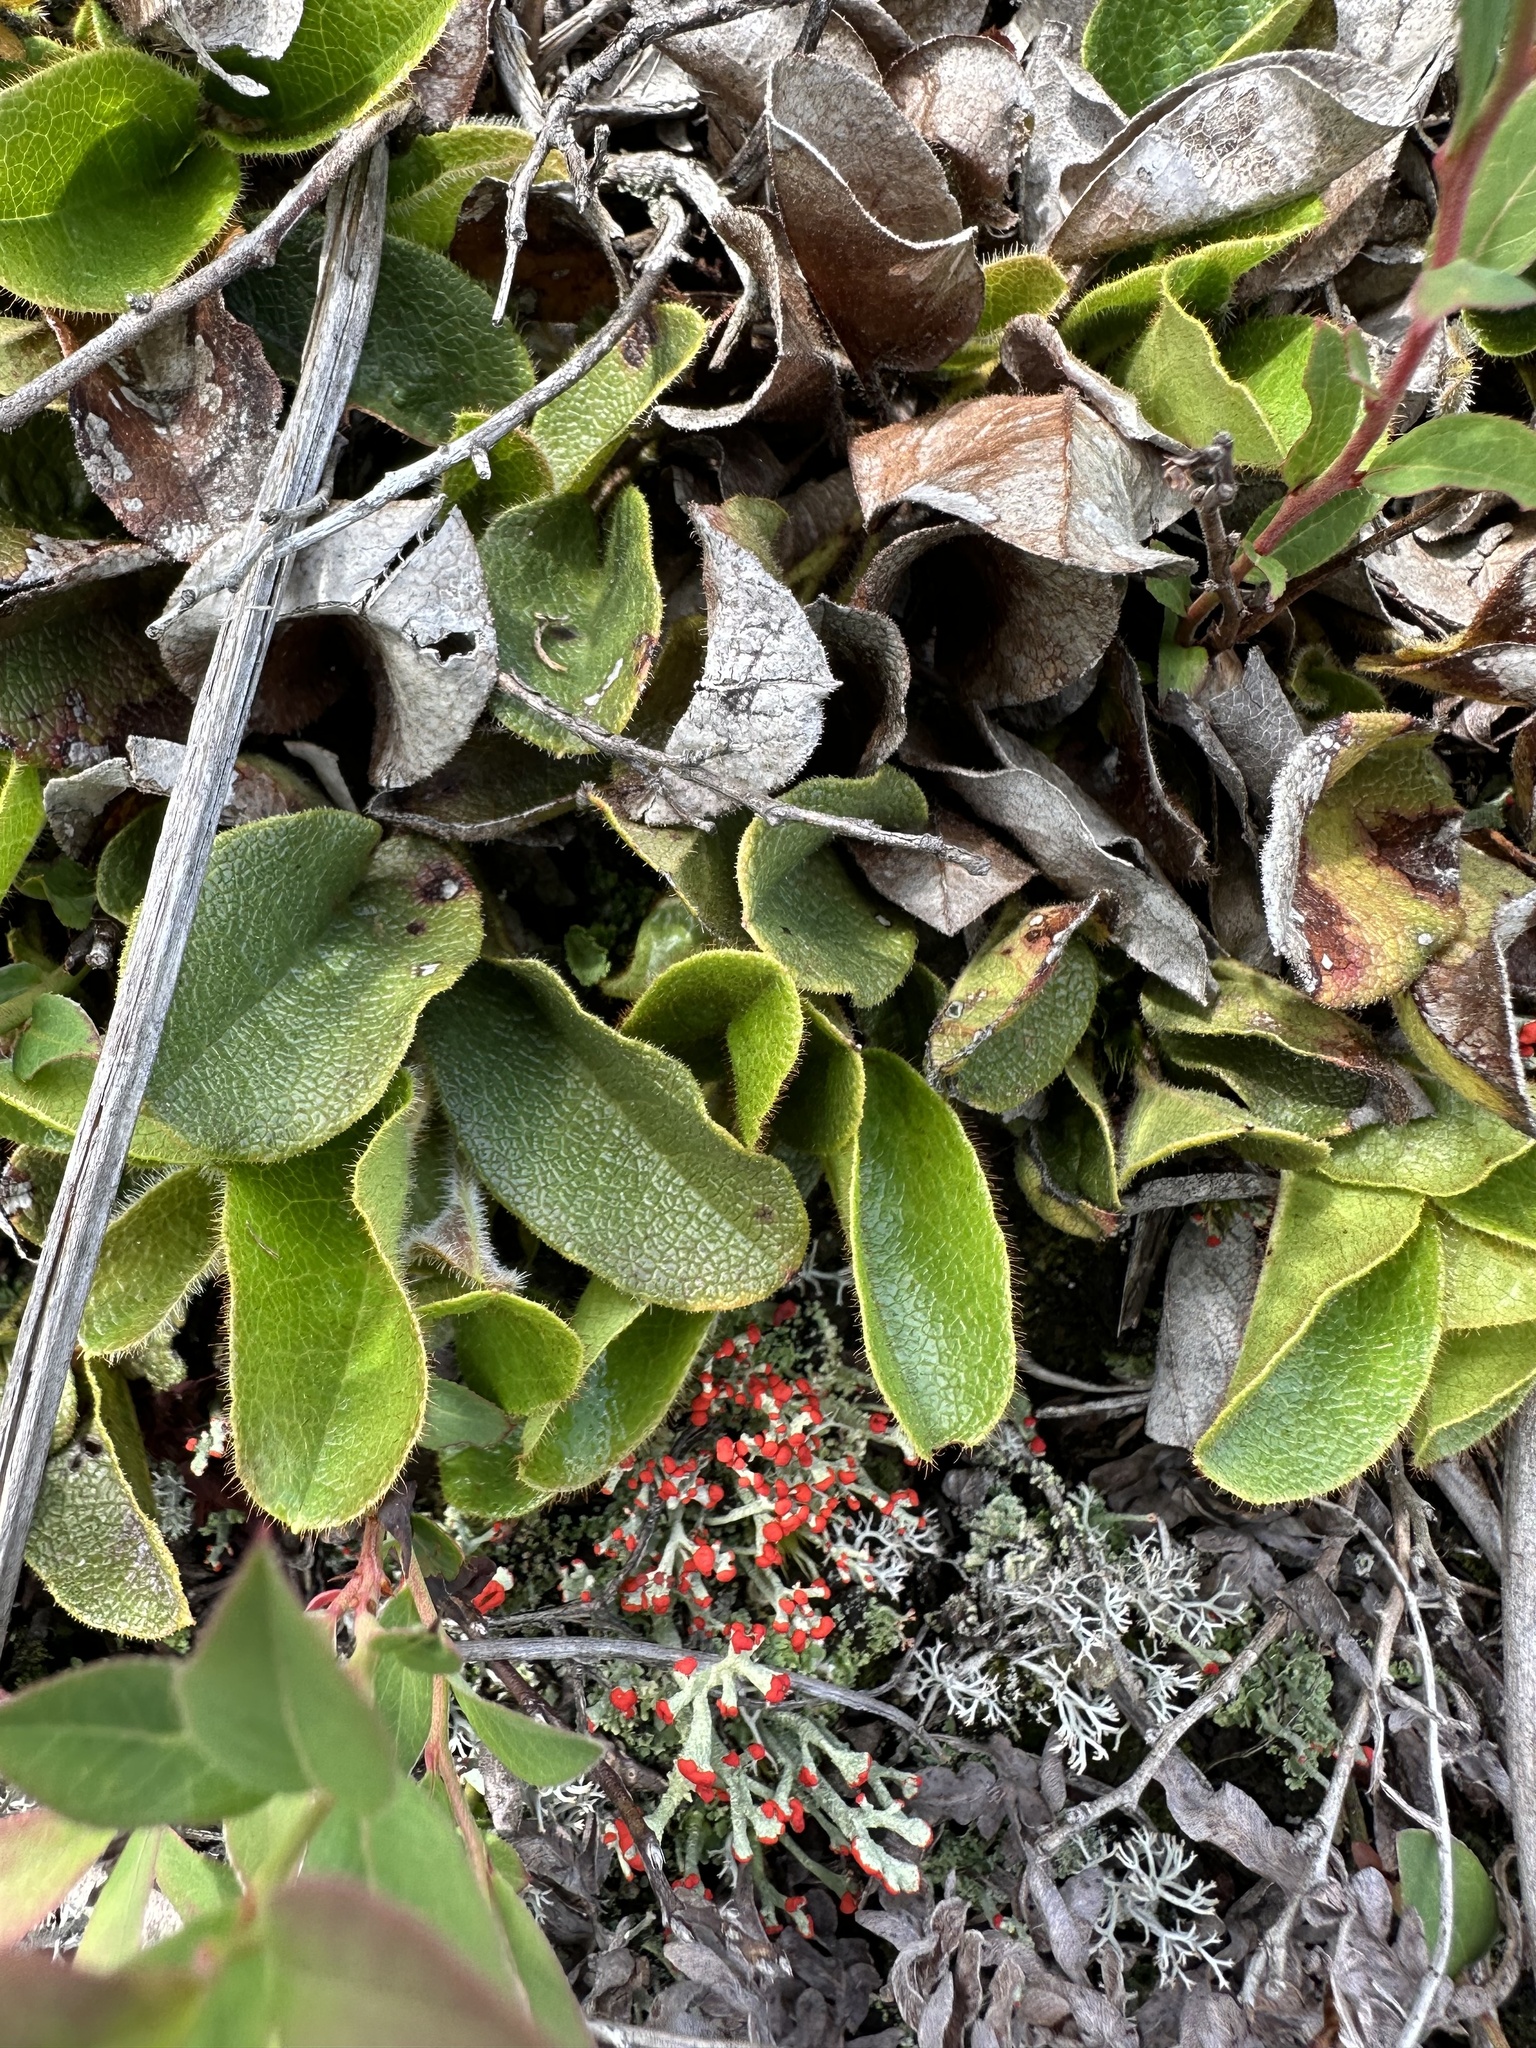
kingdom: Plantae
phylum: Tracheophyta
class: Magnoliopsida
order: Ericales
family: Ericaceae
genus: Epigaea
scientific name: Epigaea repens
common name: Gravelroot
